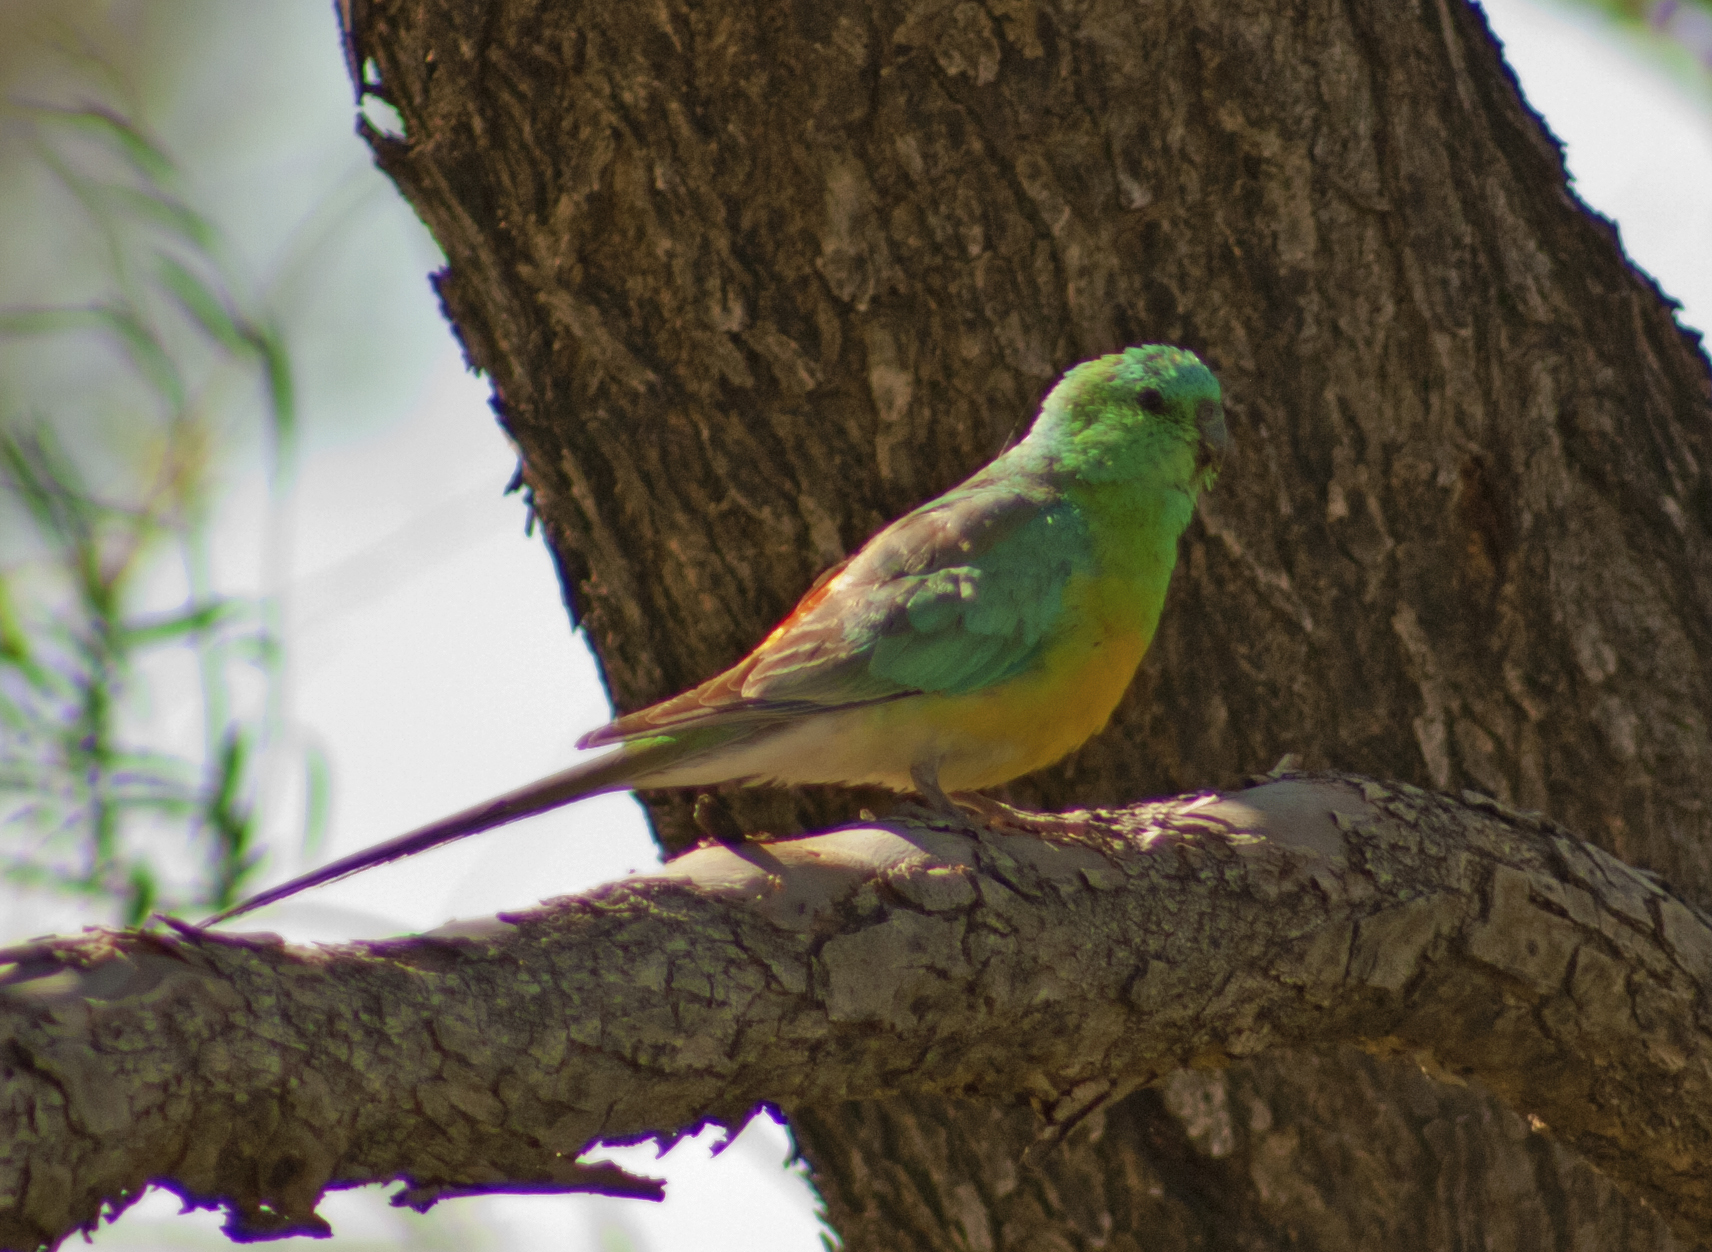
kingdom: Animalia
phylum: Chordata
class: Aves
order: Psittaciformes
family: Psittacidae
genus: Psephotus
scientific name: Psephotus haematonotus
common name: Red-rumped parrot
